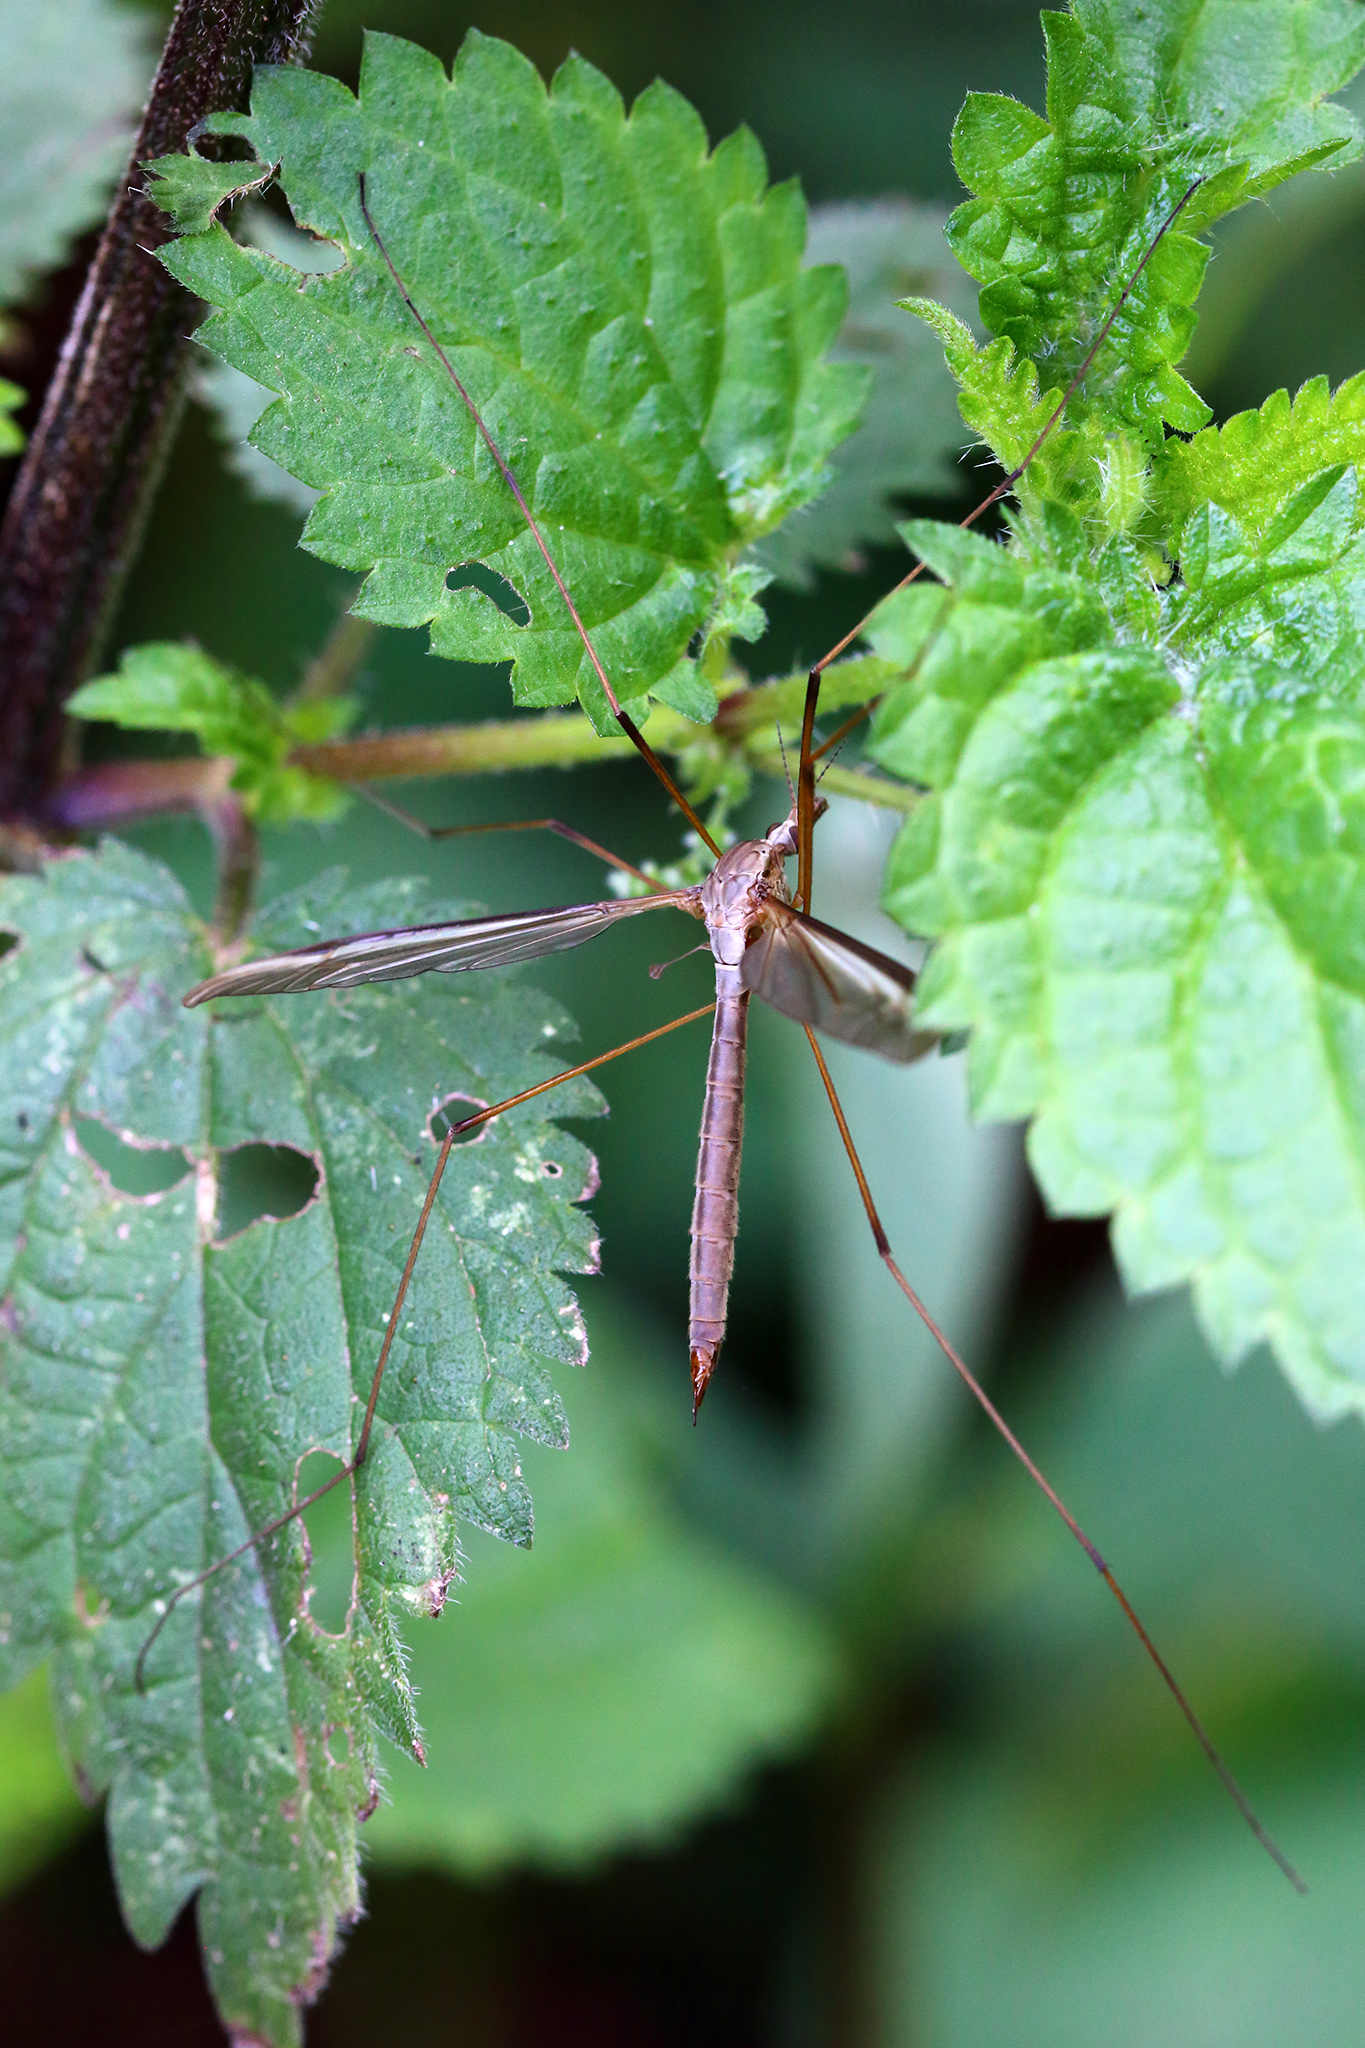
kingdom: Animalia
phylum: Arthropoda
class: Insecta
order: Diptera
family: Tipulidae
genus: Tipula
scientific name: Tipula oleracea
